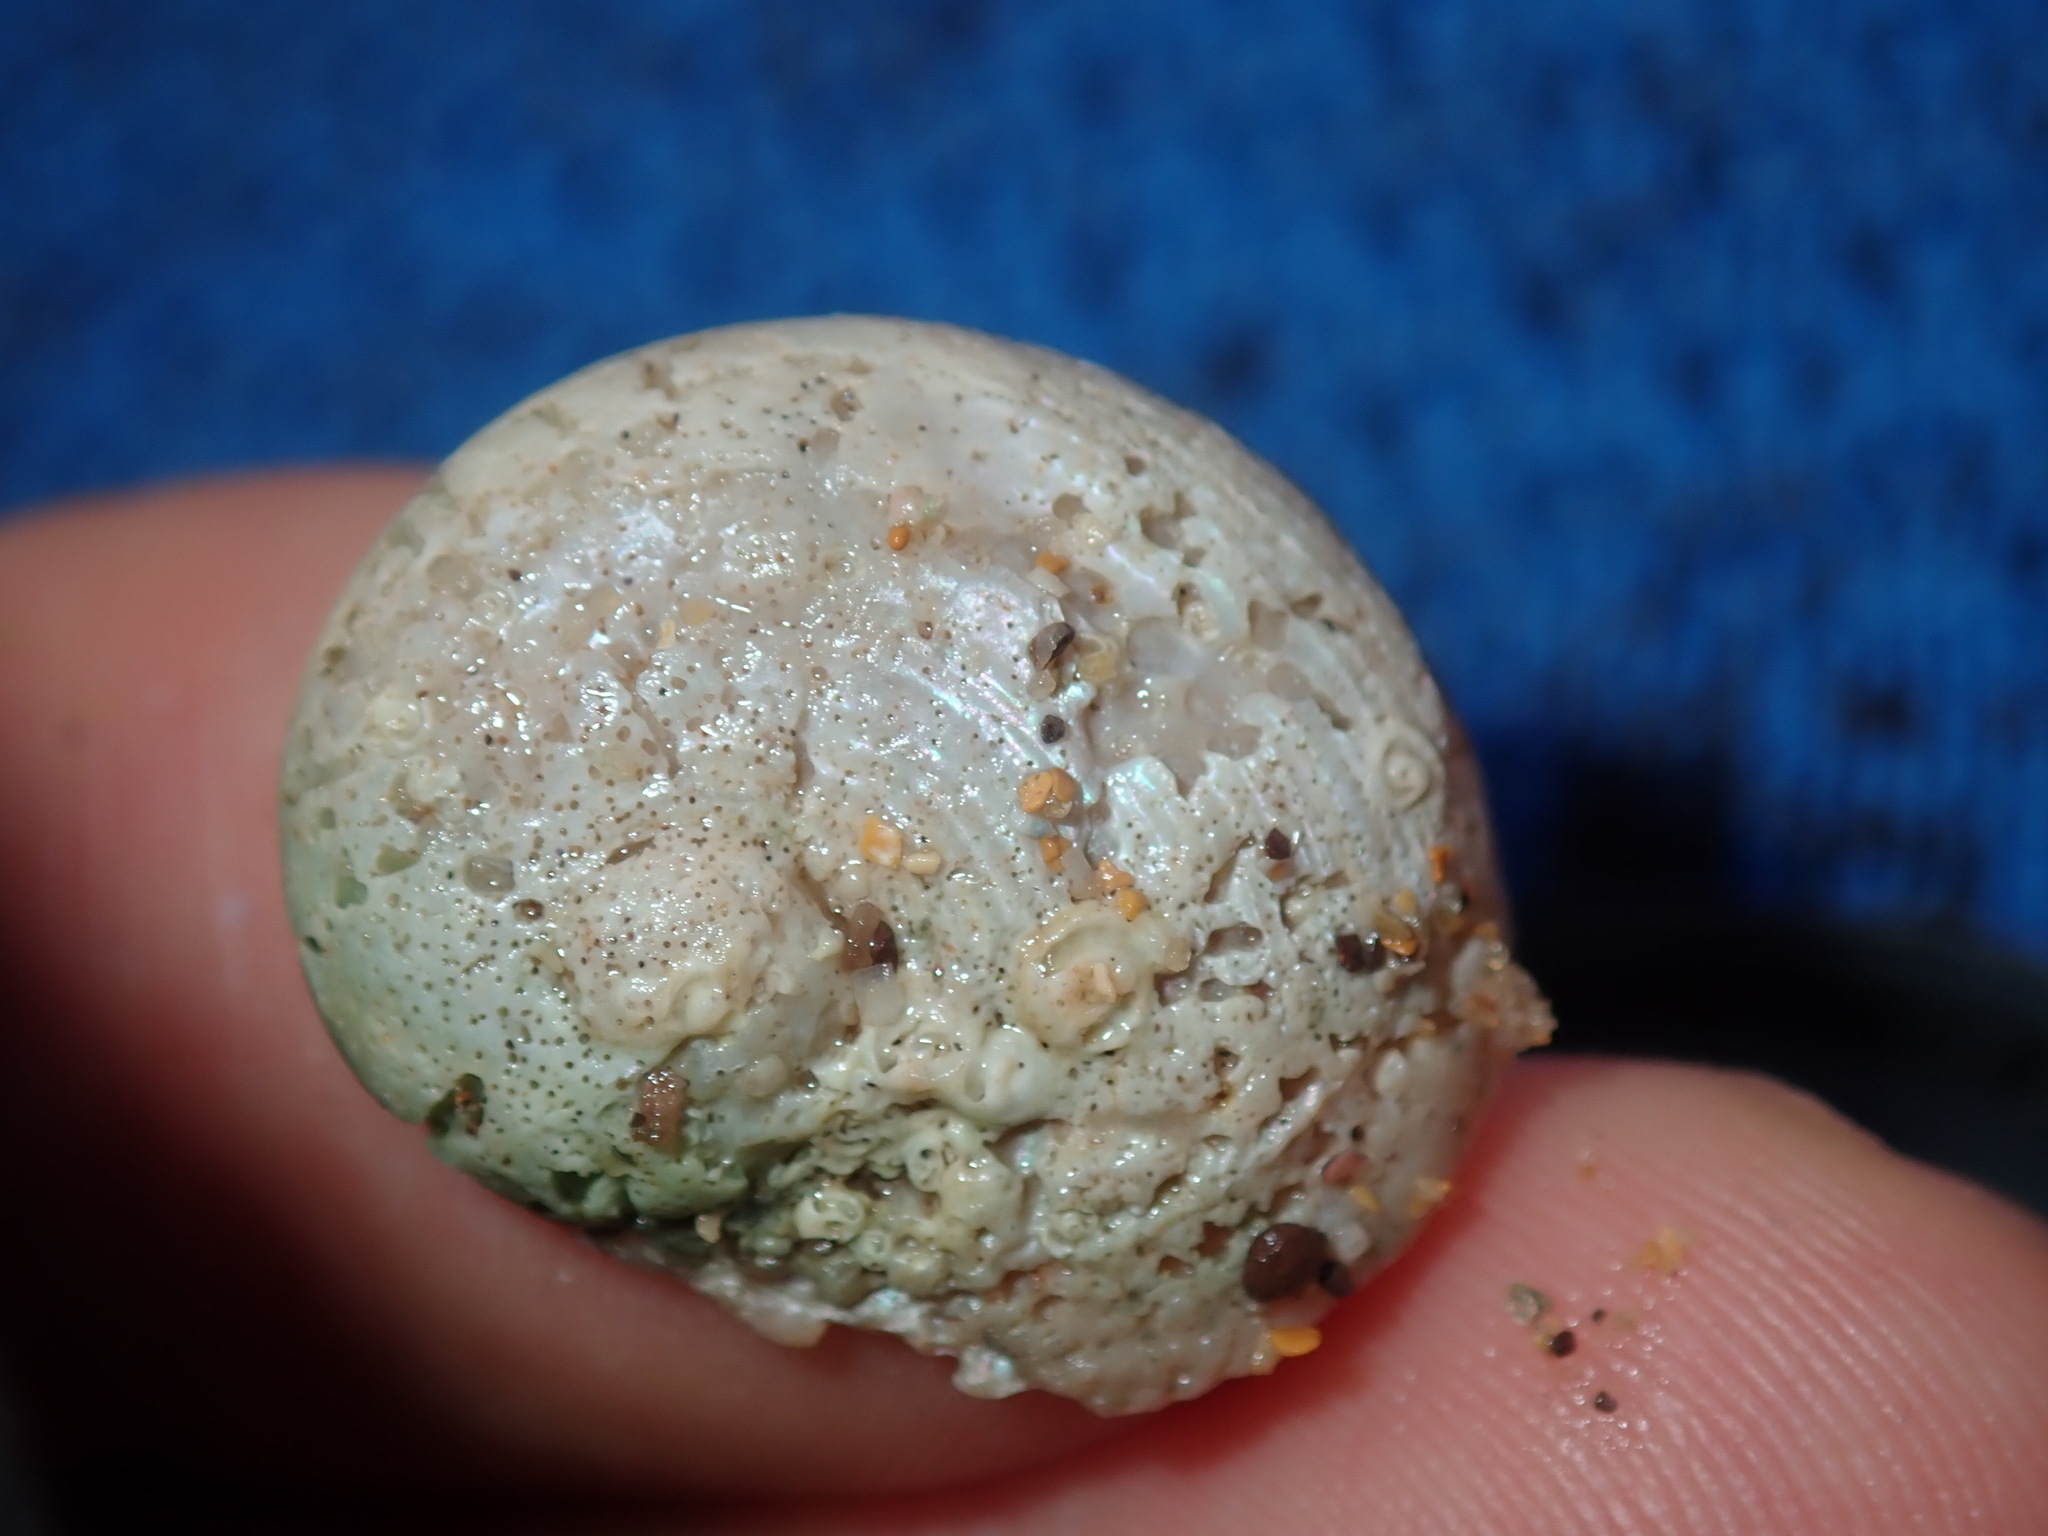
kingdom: Animalia
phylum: Mollusca
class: Gastropoda
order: Seguenziida
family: Chilodontaidae
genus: Granata
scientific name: Granata imbricata
